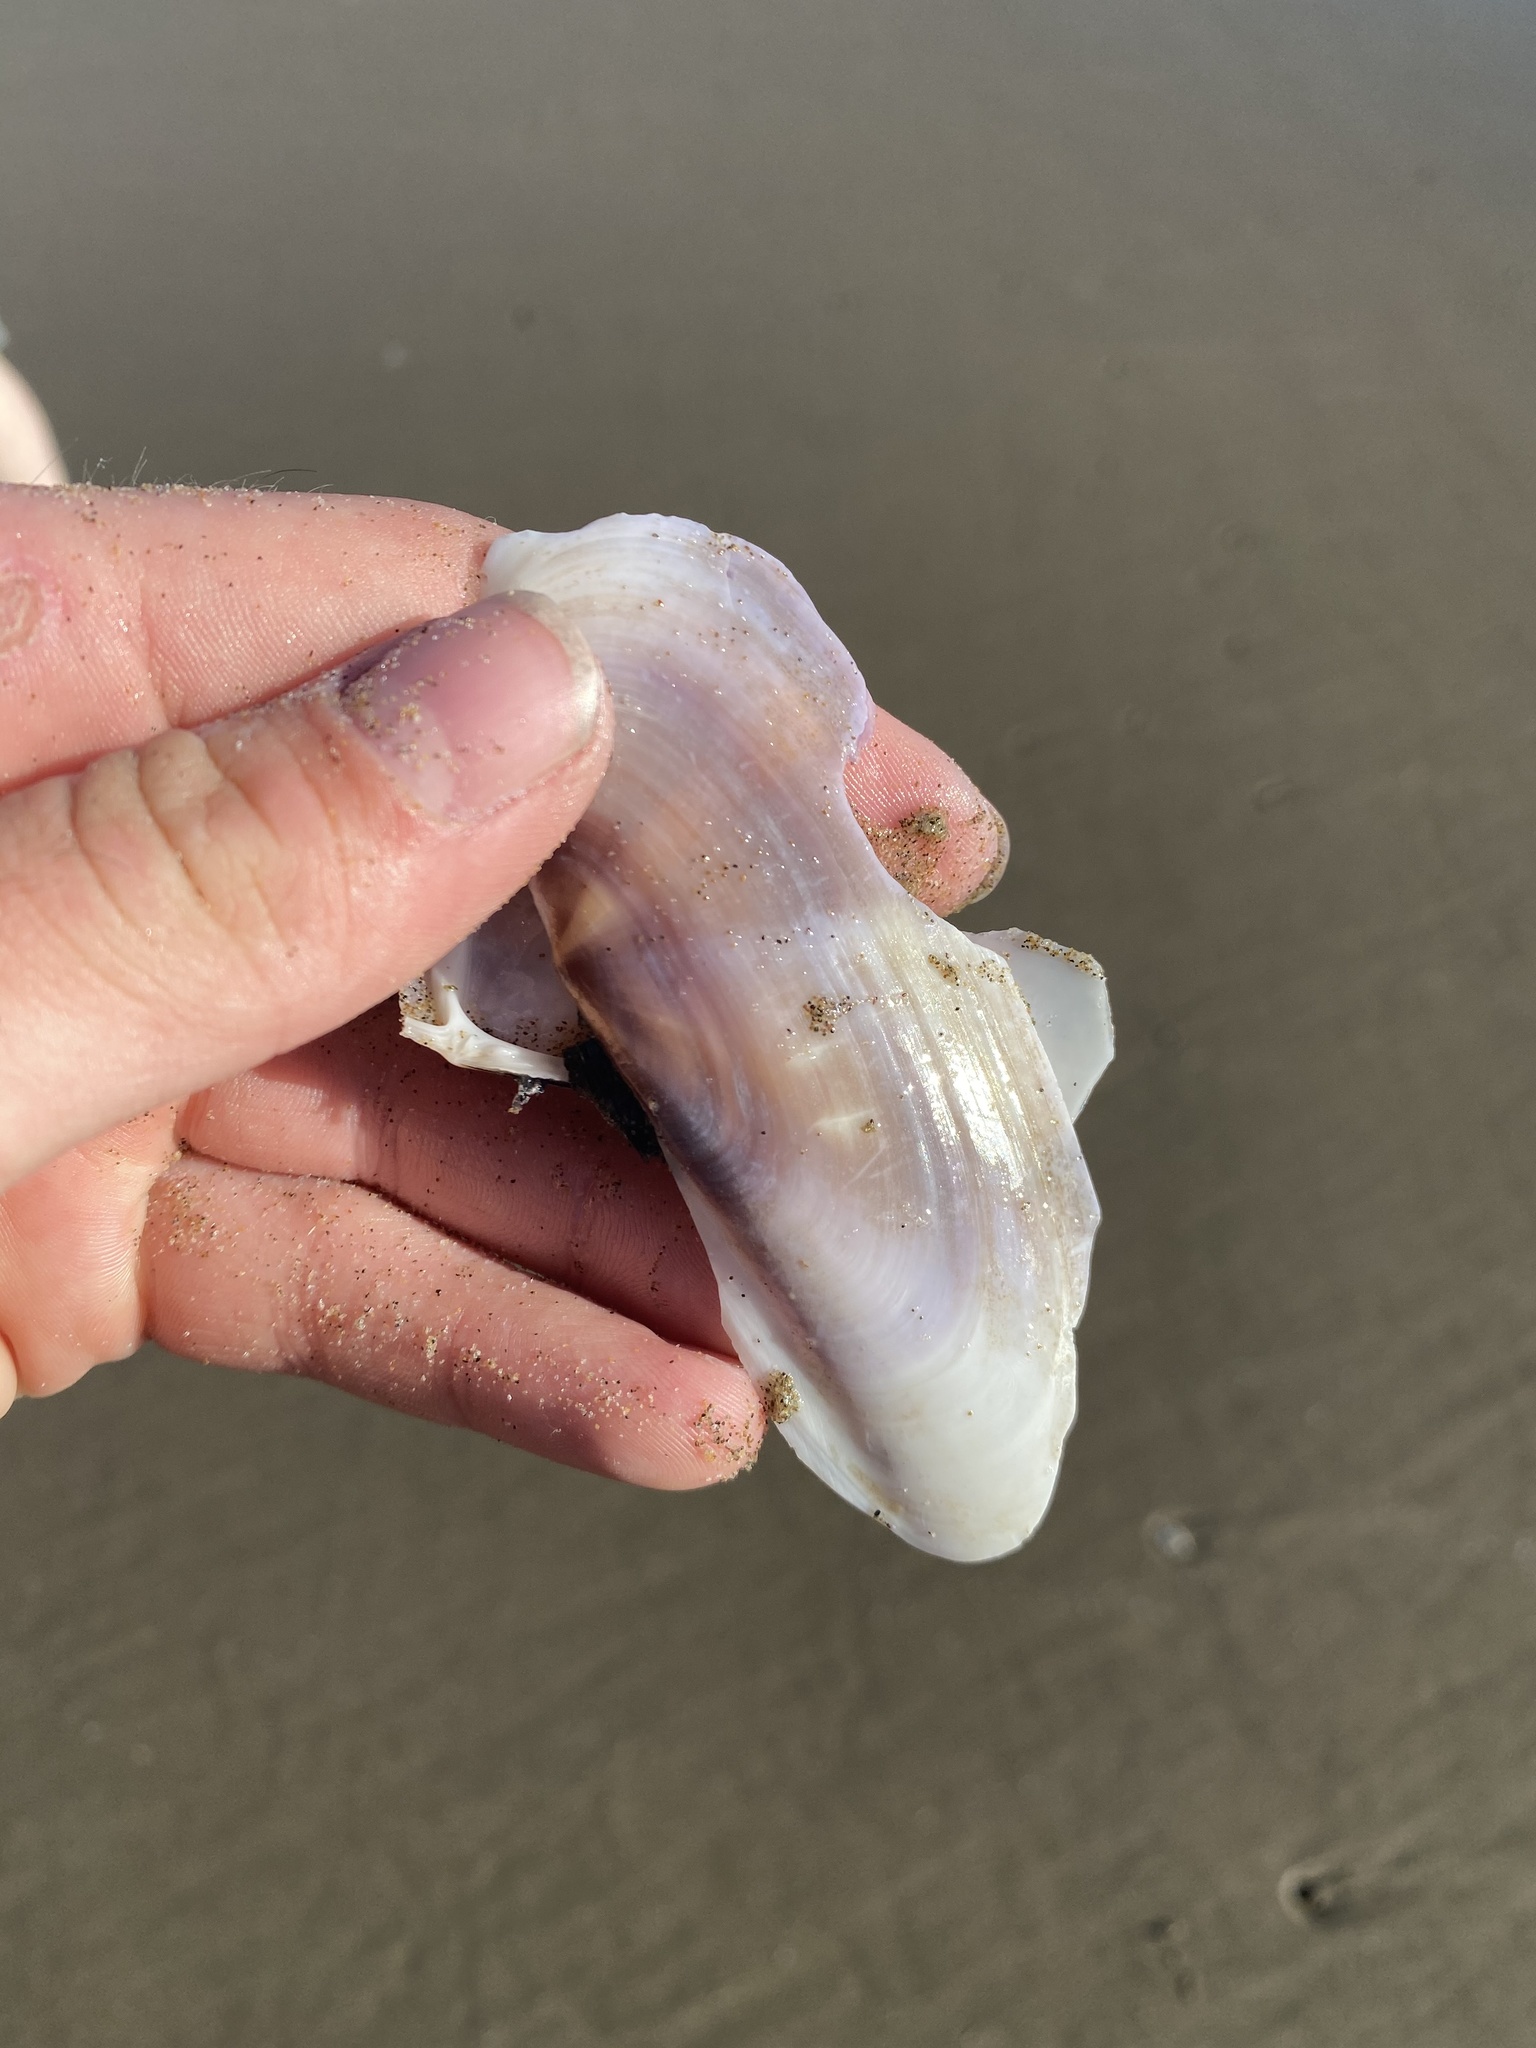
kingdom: Animalia
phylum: Mollusca
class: Bivalvia
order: Adapedonta
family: Pharidae
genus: Siliqua
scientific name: Siliqua patula
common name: Pacific razor clam
